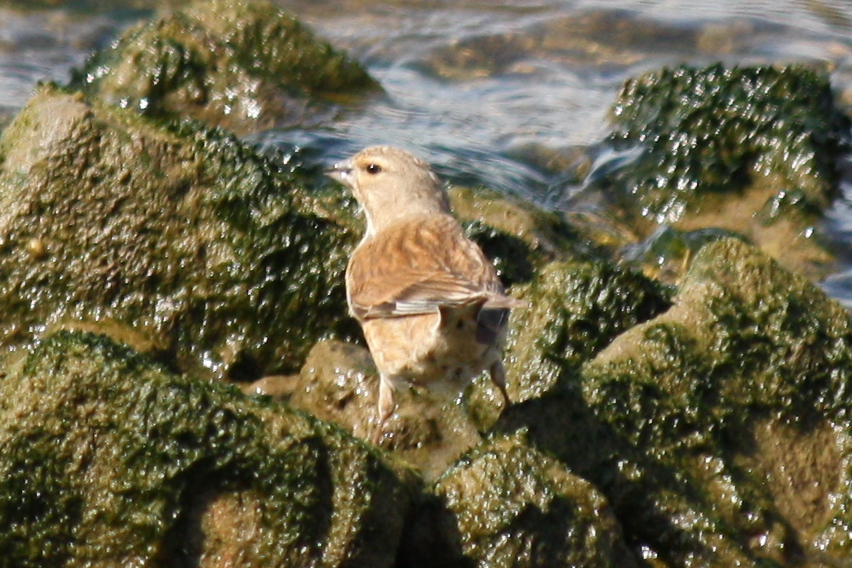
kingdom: Animalia
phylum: Chordata
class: Aves
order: Passeriformes
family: Fringillidae
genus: Linaria
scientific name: Linaria cannabina
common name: Common linnet
